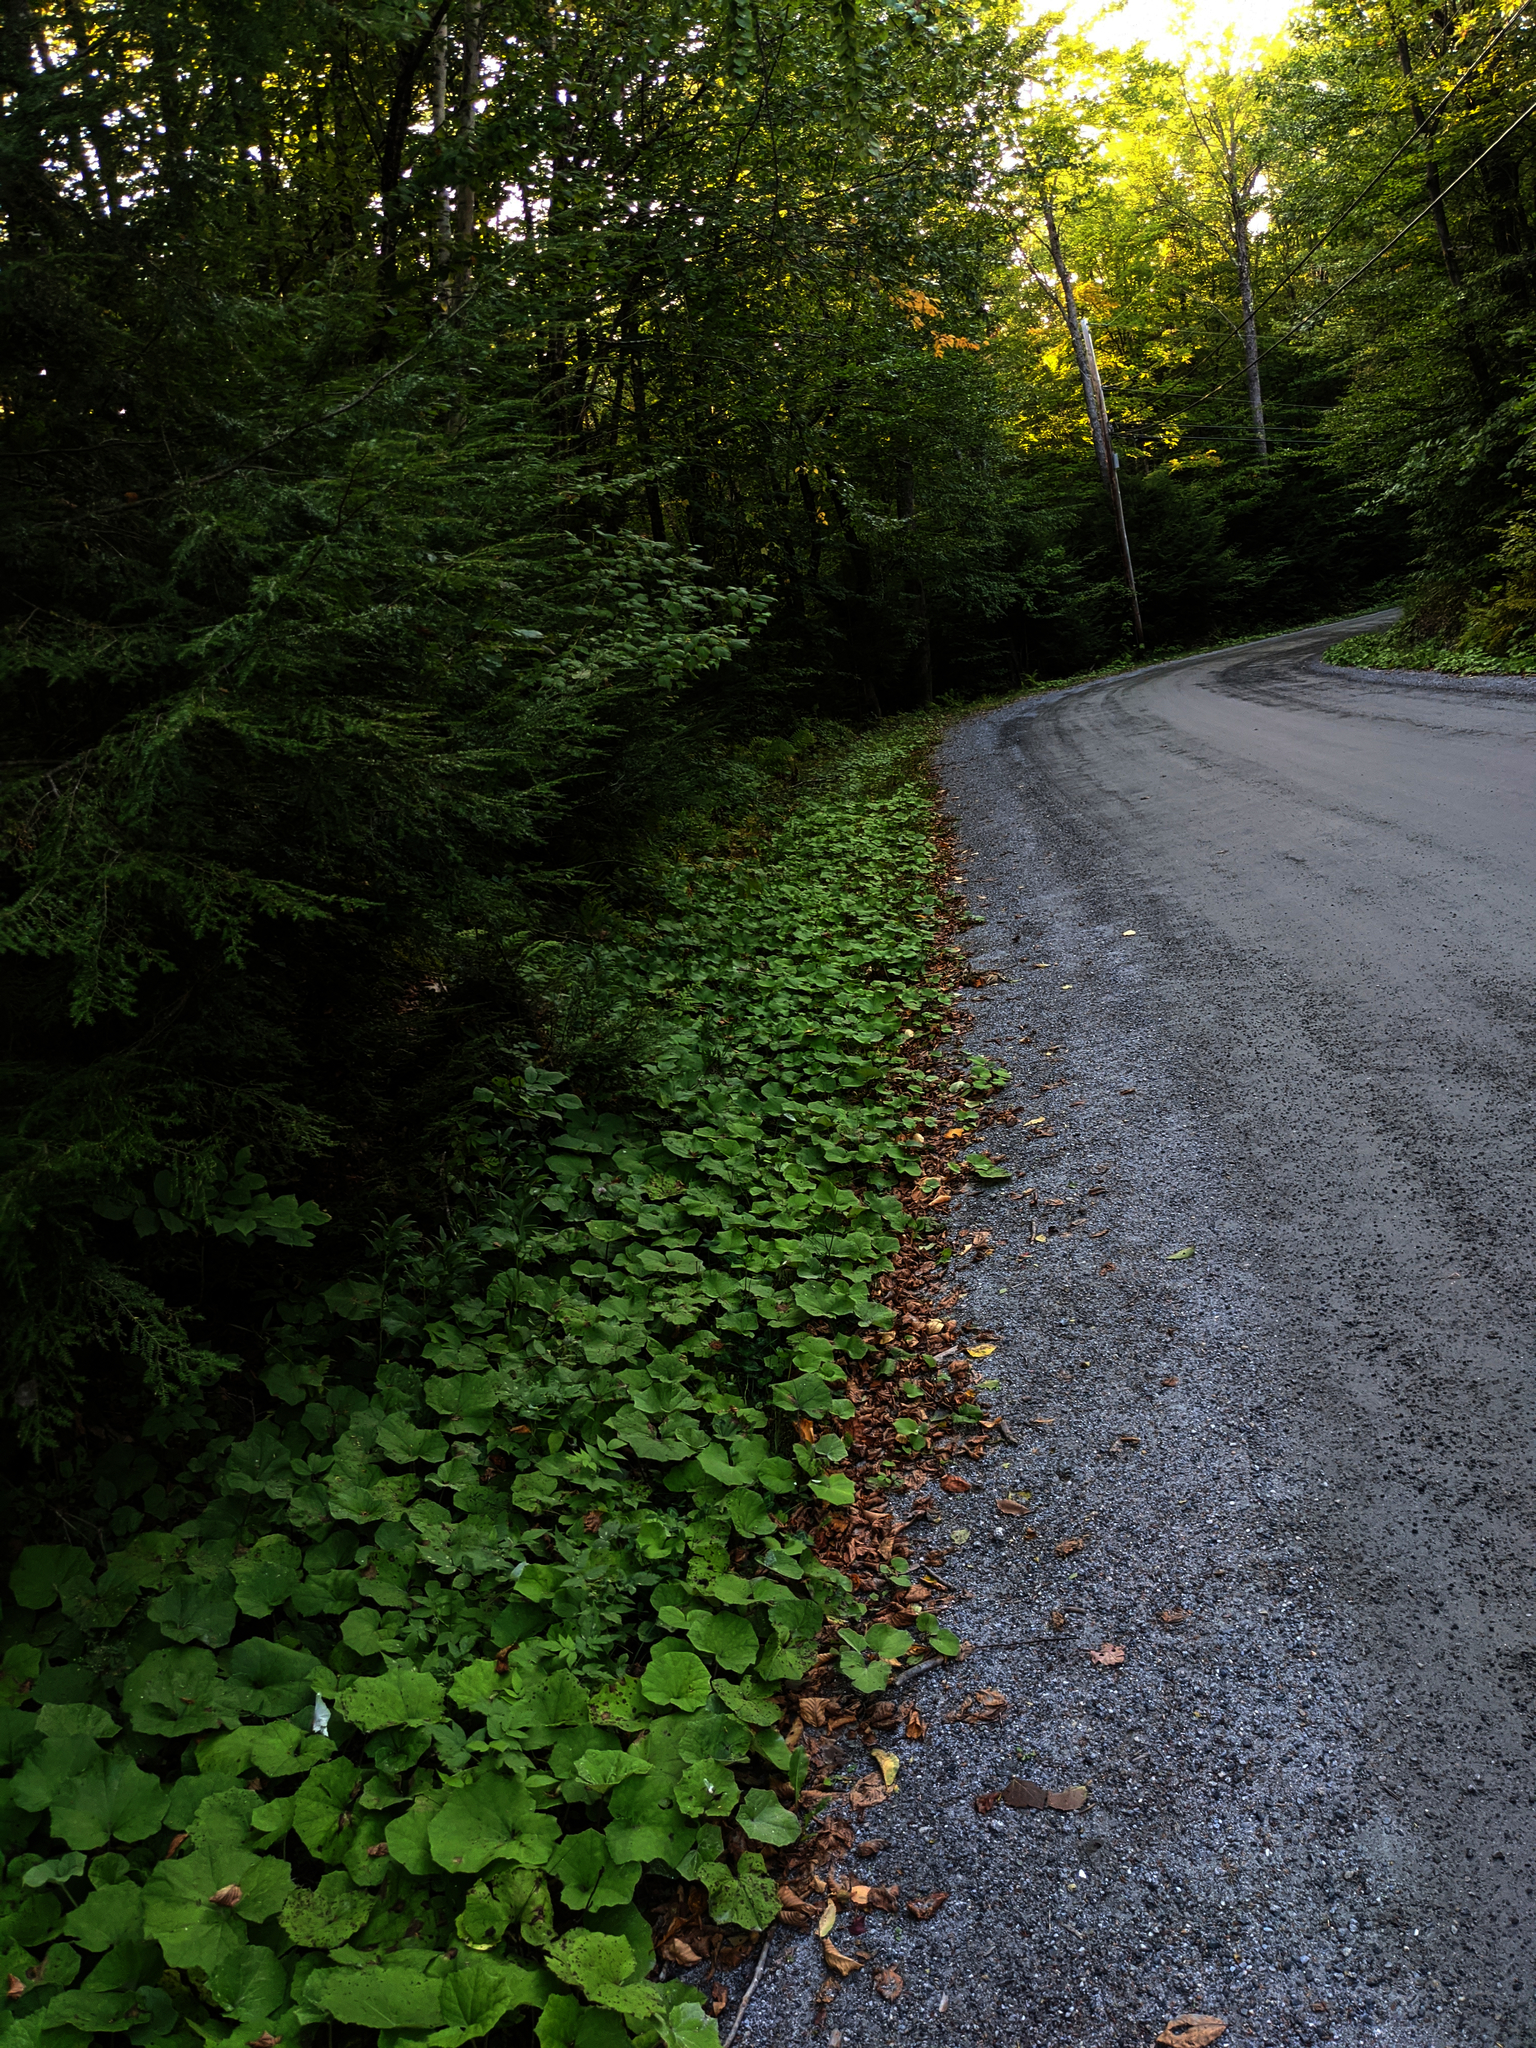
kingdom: Plantae
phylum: Tracheophyta
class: Magnoliopsida
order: Asterales
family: Asteraceae
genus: Tussilago
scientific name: Tussilago farfara
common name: Coltsfoot
